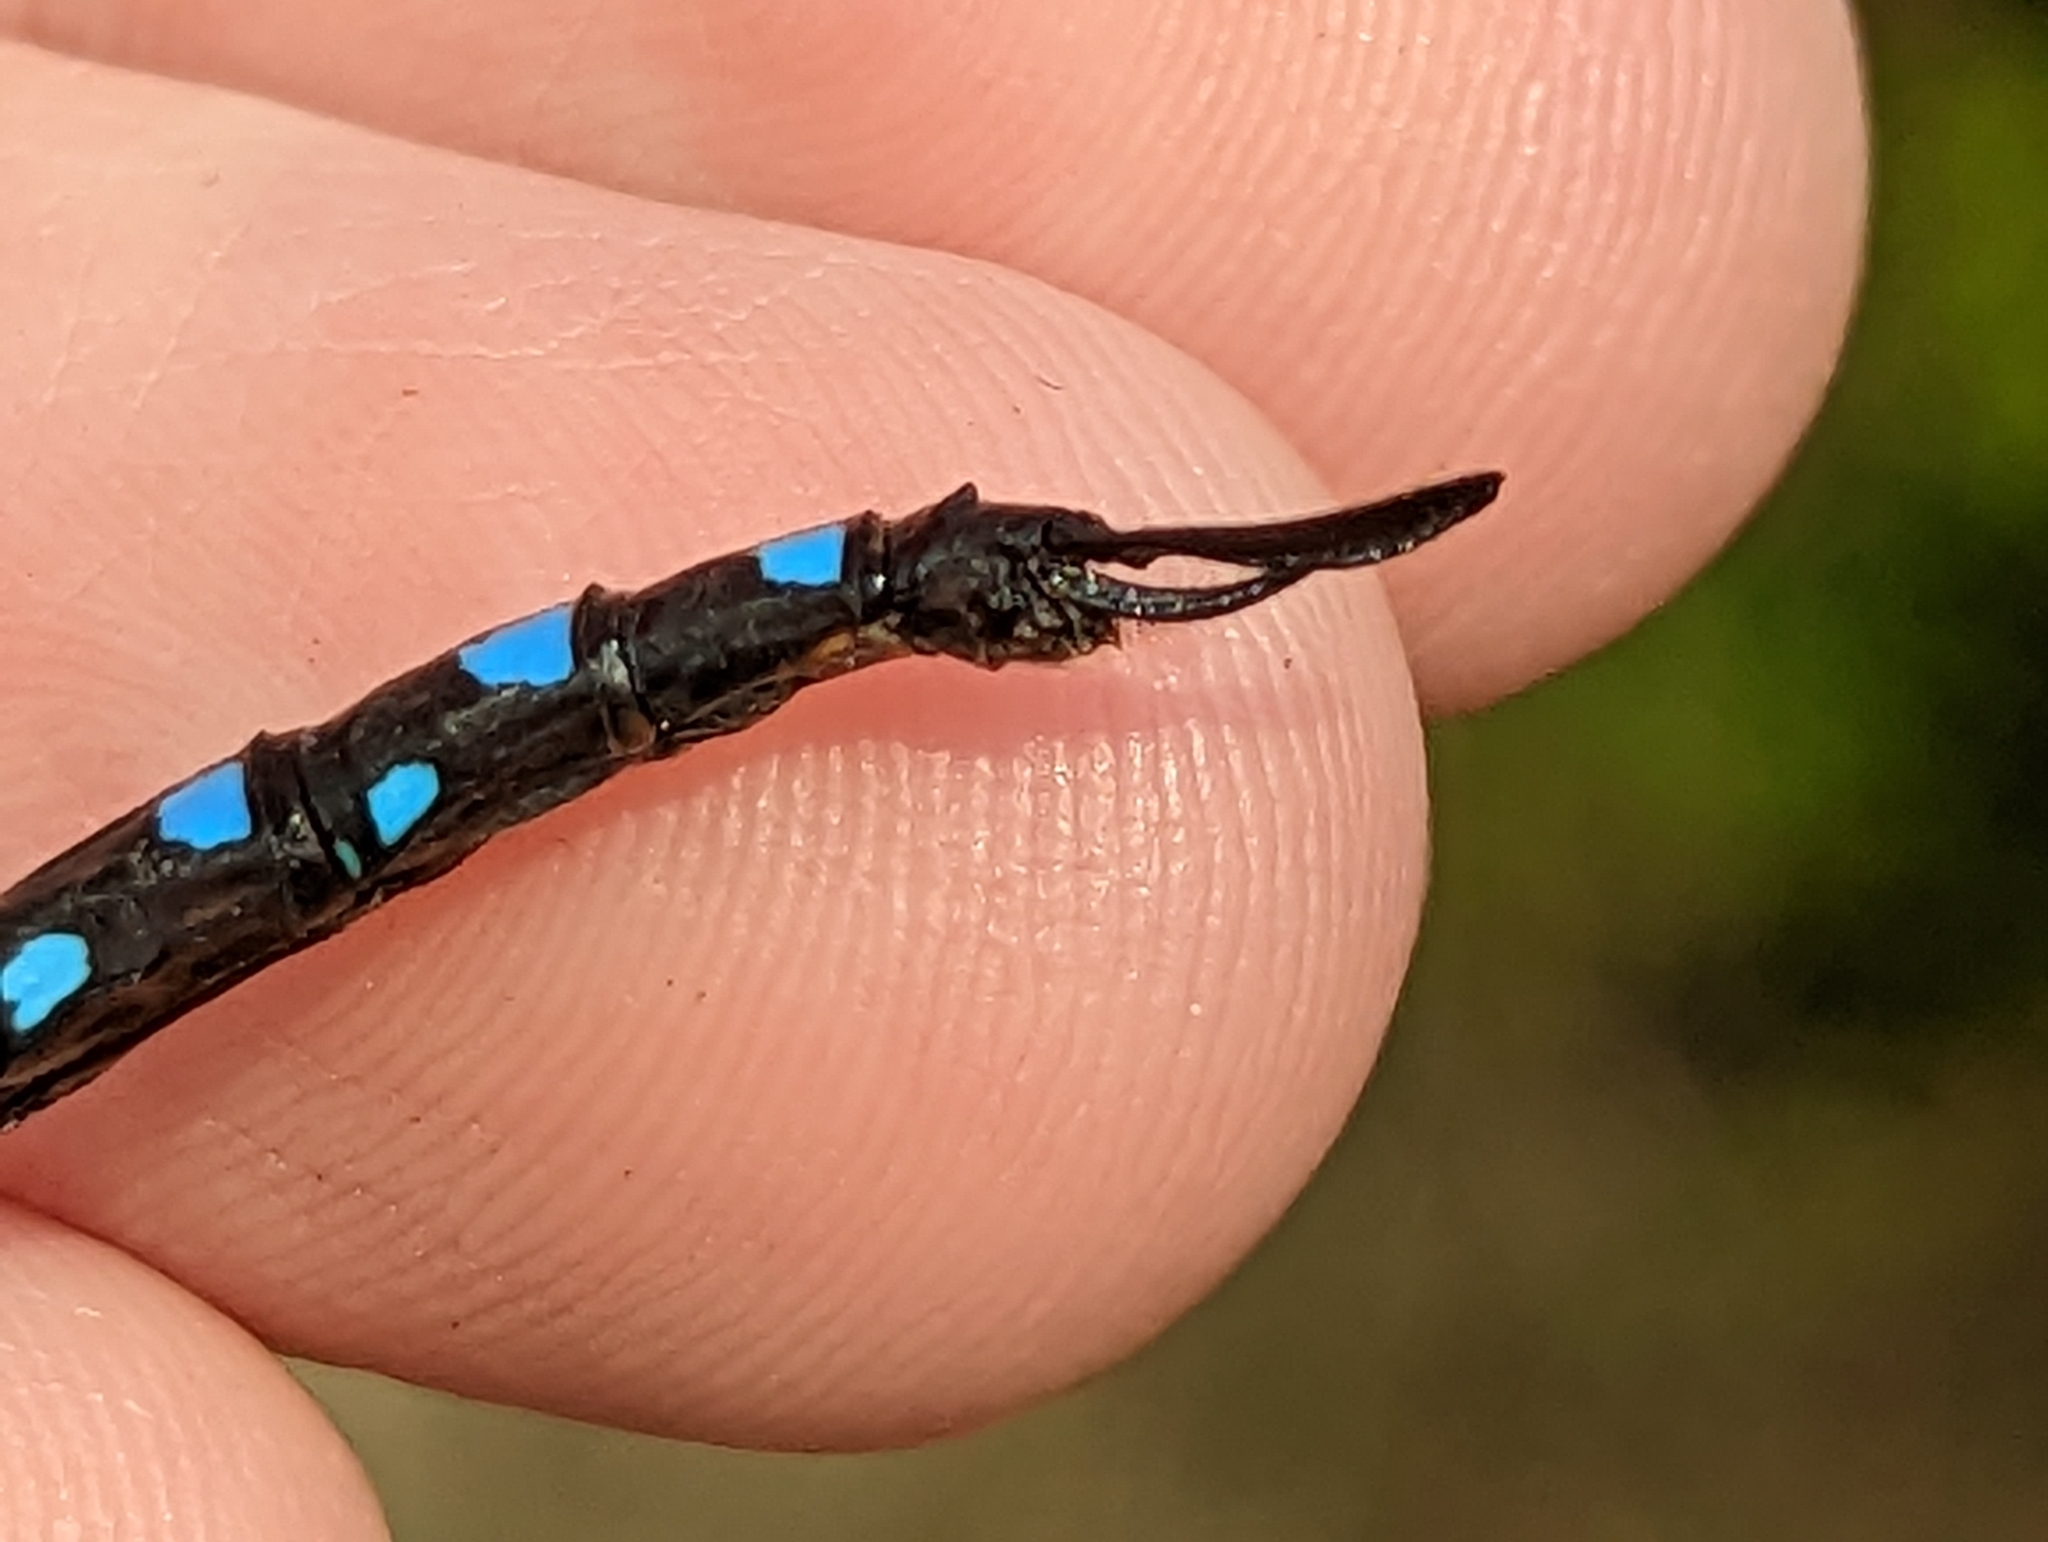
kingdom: Animalia
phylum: Arthropoda
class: Insecta
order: Odonata
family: Aeshnidae
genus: Aeshna
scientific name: Aeshna tuberculifera
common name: Aeschne à tubercules
